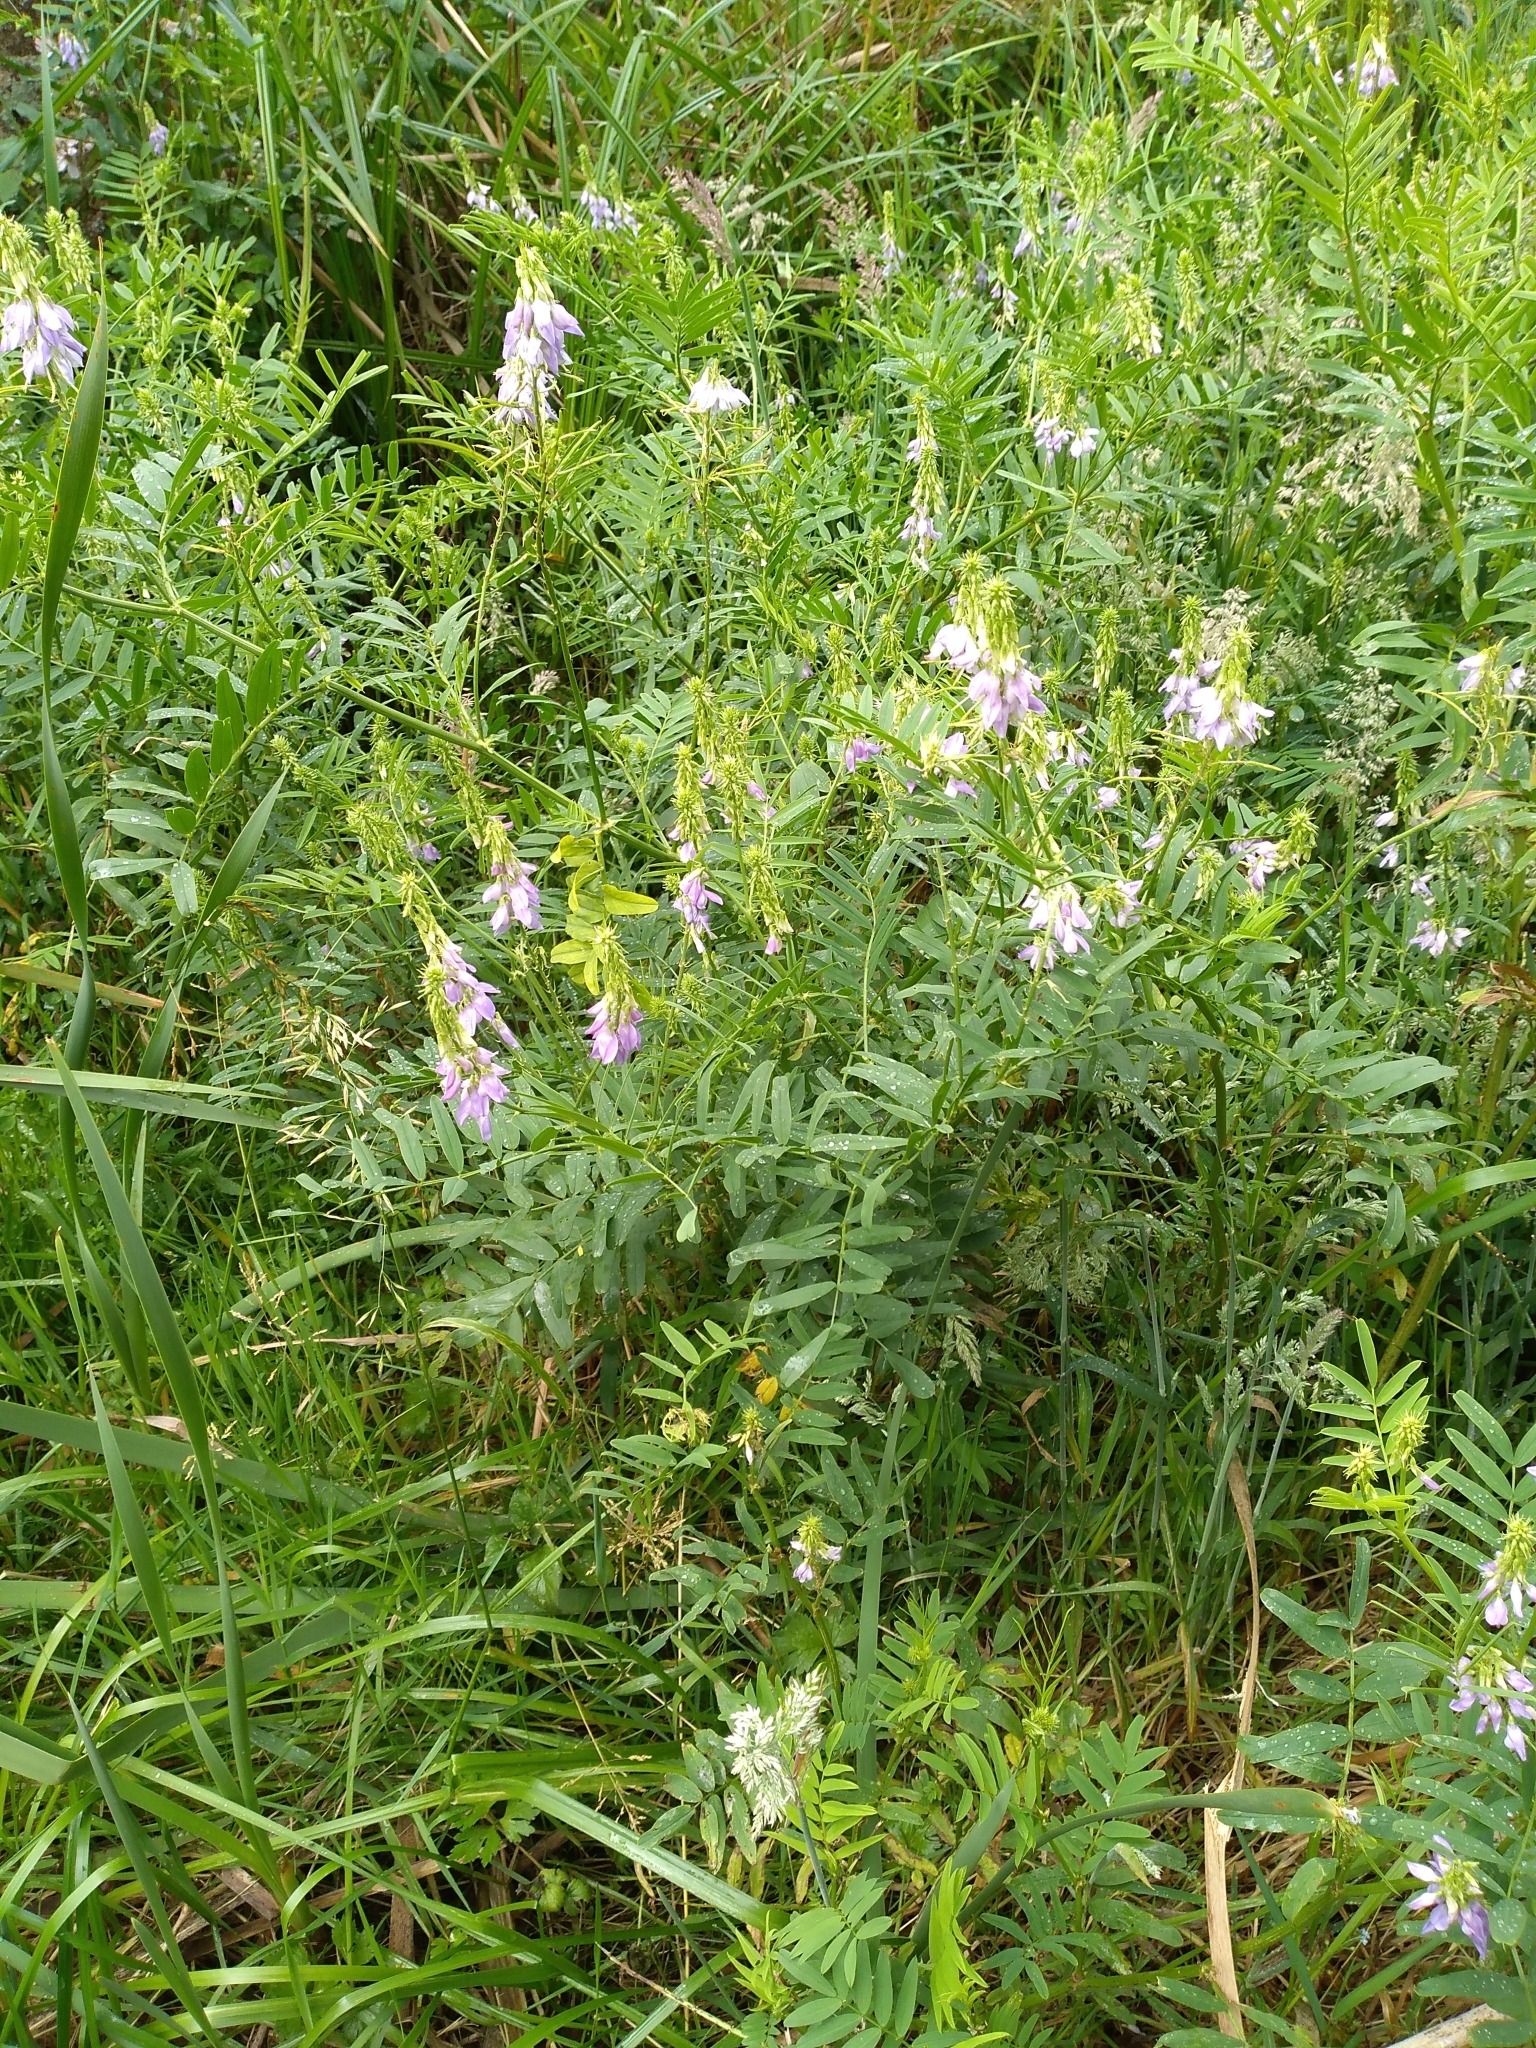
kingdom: Plantae
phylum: Tracheophyta
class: Magnoliopsida
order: Fabales
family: Fabaceae
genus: Galega
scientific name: Galega officinalis
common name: Goat's-rue
